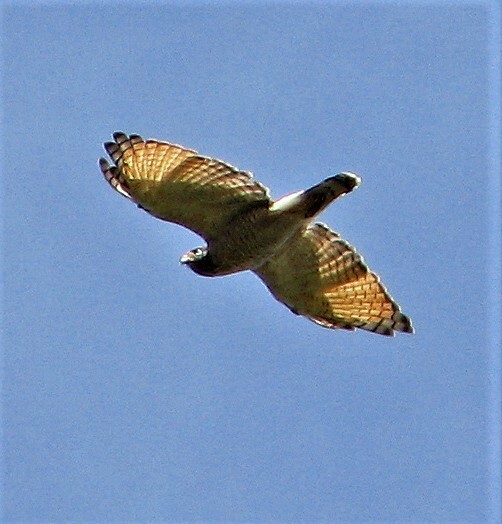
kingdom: Animalia
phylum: Chordata
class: Aves
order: Accipitriformes
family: Accipitridae
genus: Rupornis
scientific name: Rupornis magnirostris
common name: Roadside hawk
